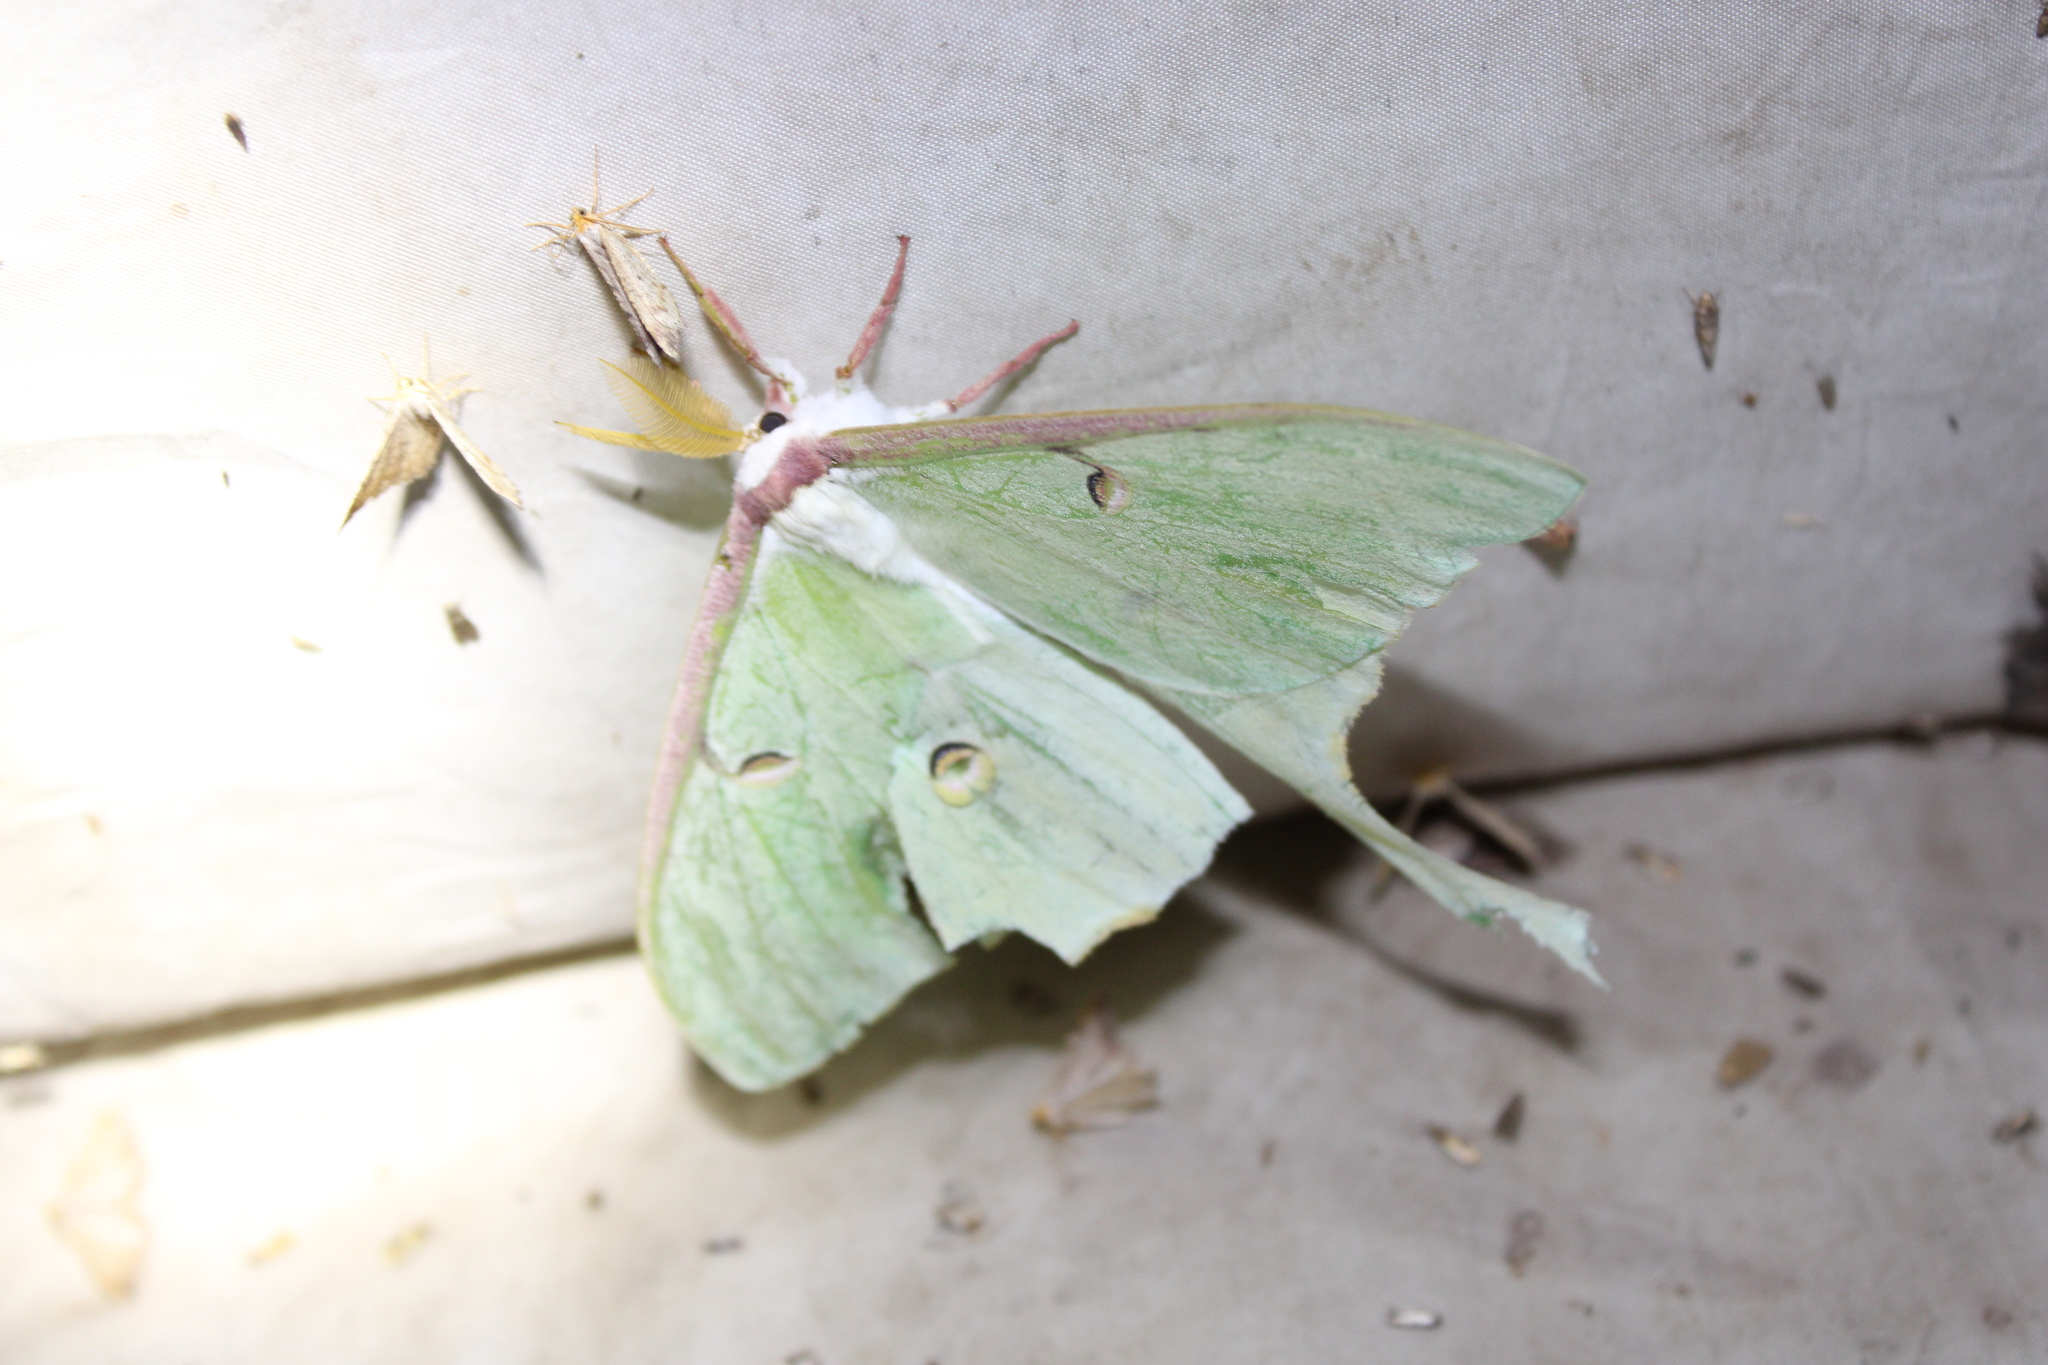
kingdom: Animalia
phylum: Arthropoda
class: Insecta
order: Lepidoptera
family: Saturniidae
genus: Actias
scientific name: Actias luna
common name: Luna moth
